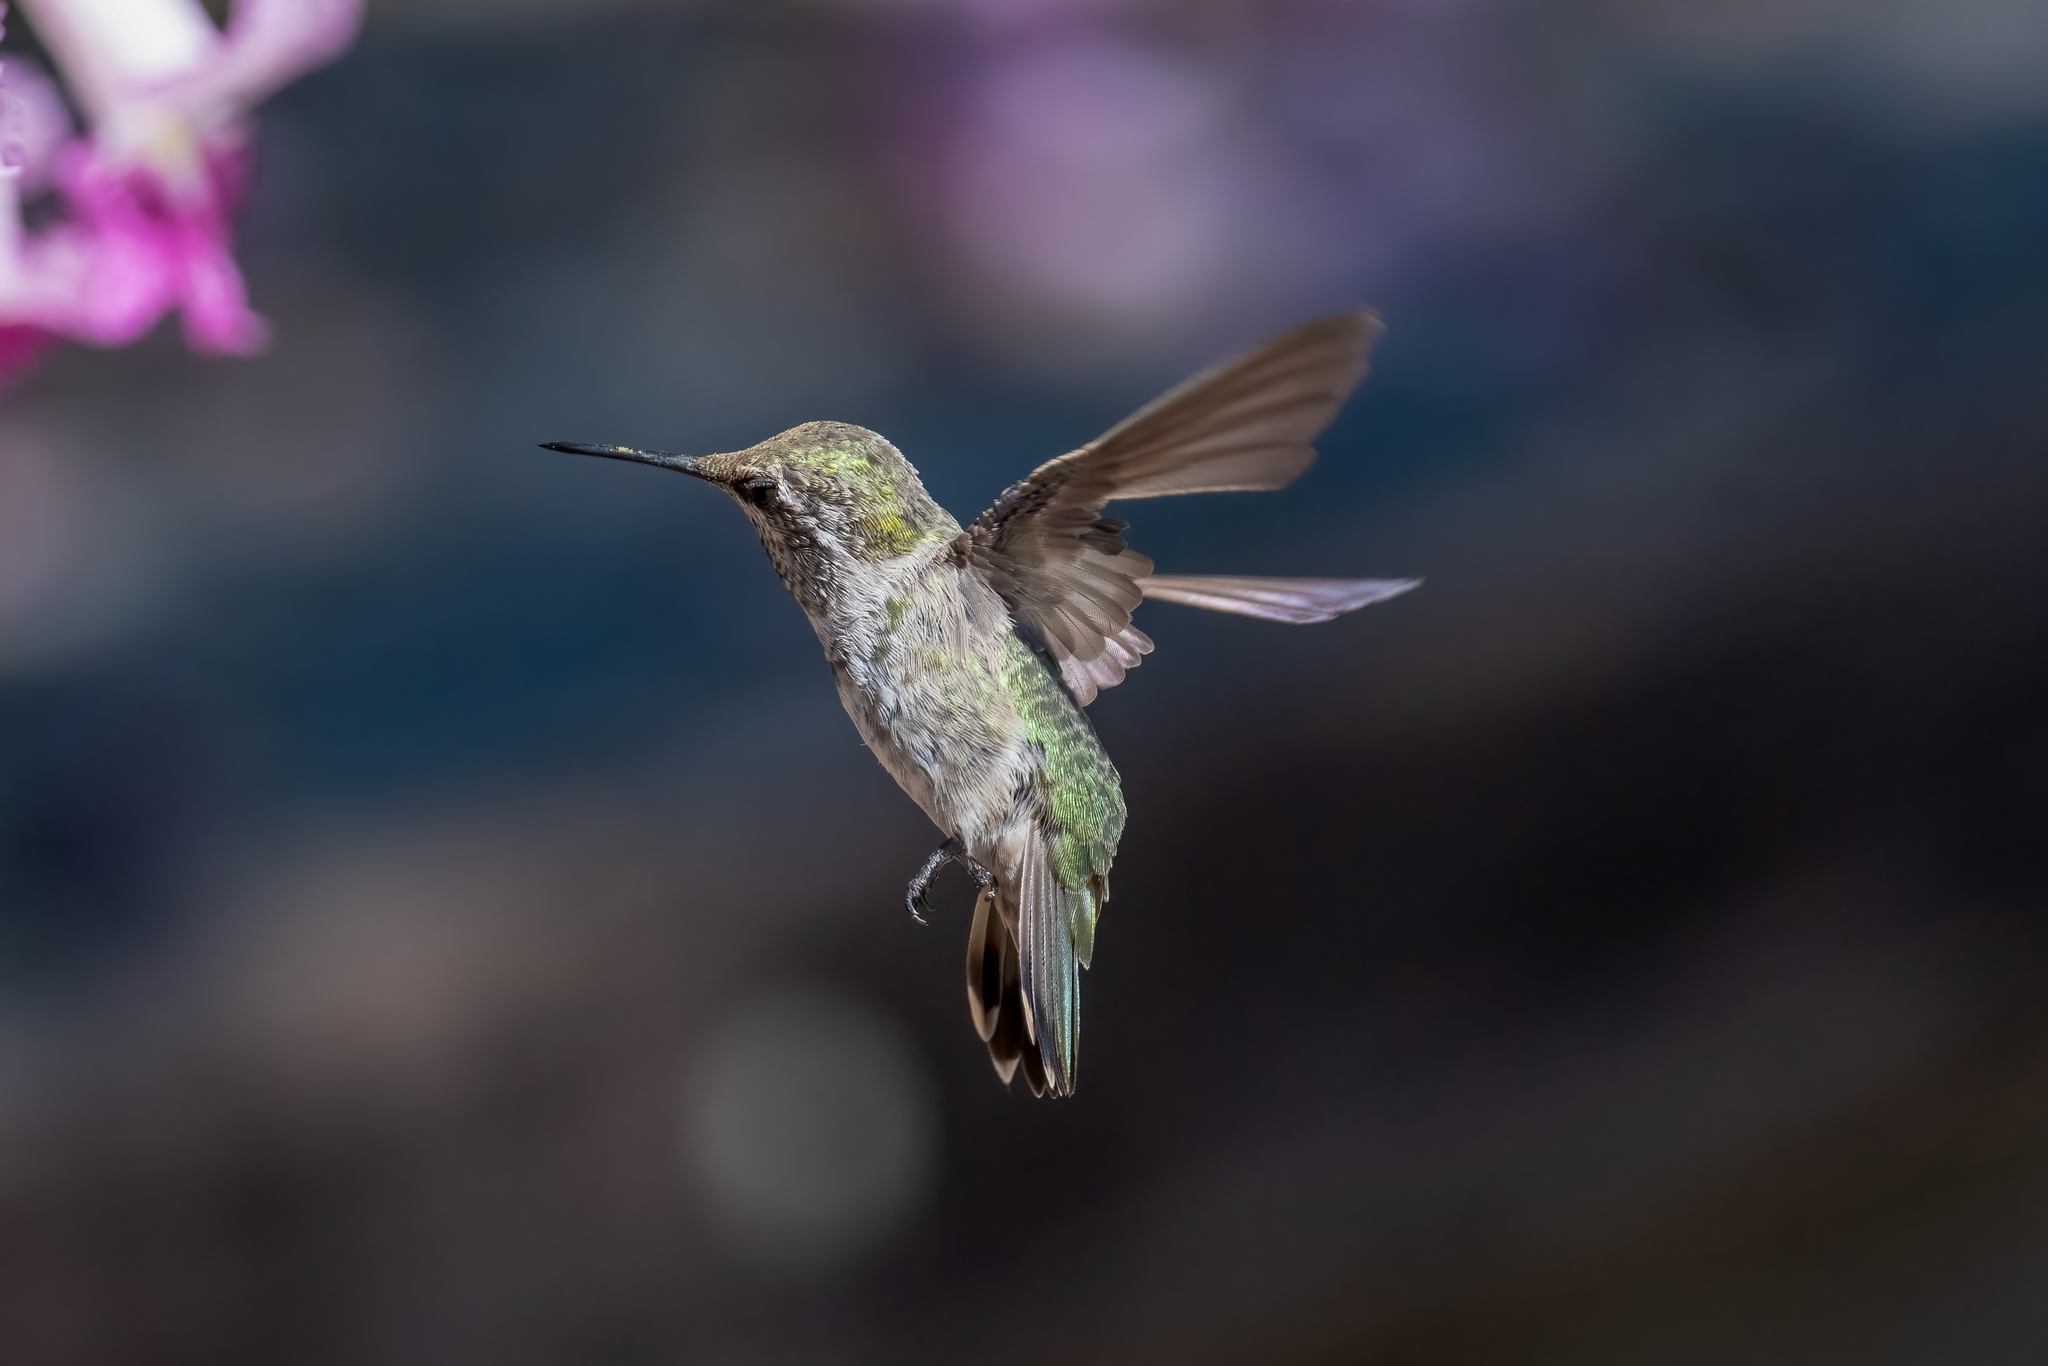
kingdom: Animalia
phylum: Chordata
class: Aves
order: Apodiformes
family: Trochilidae
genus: Calypte
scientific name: Calypte anna
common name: Anna's hummingbird
